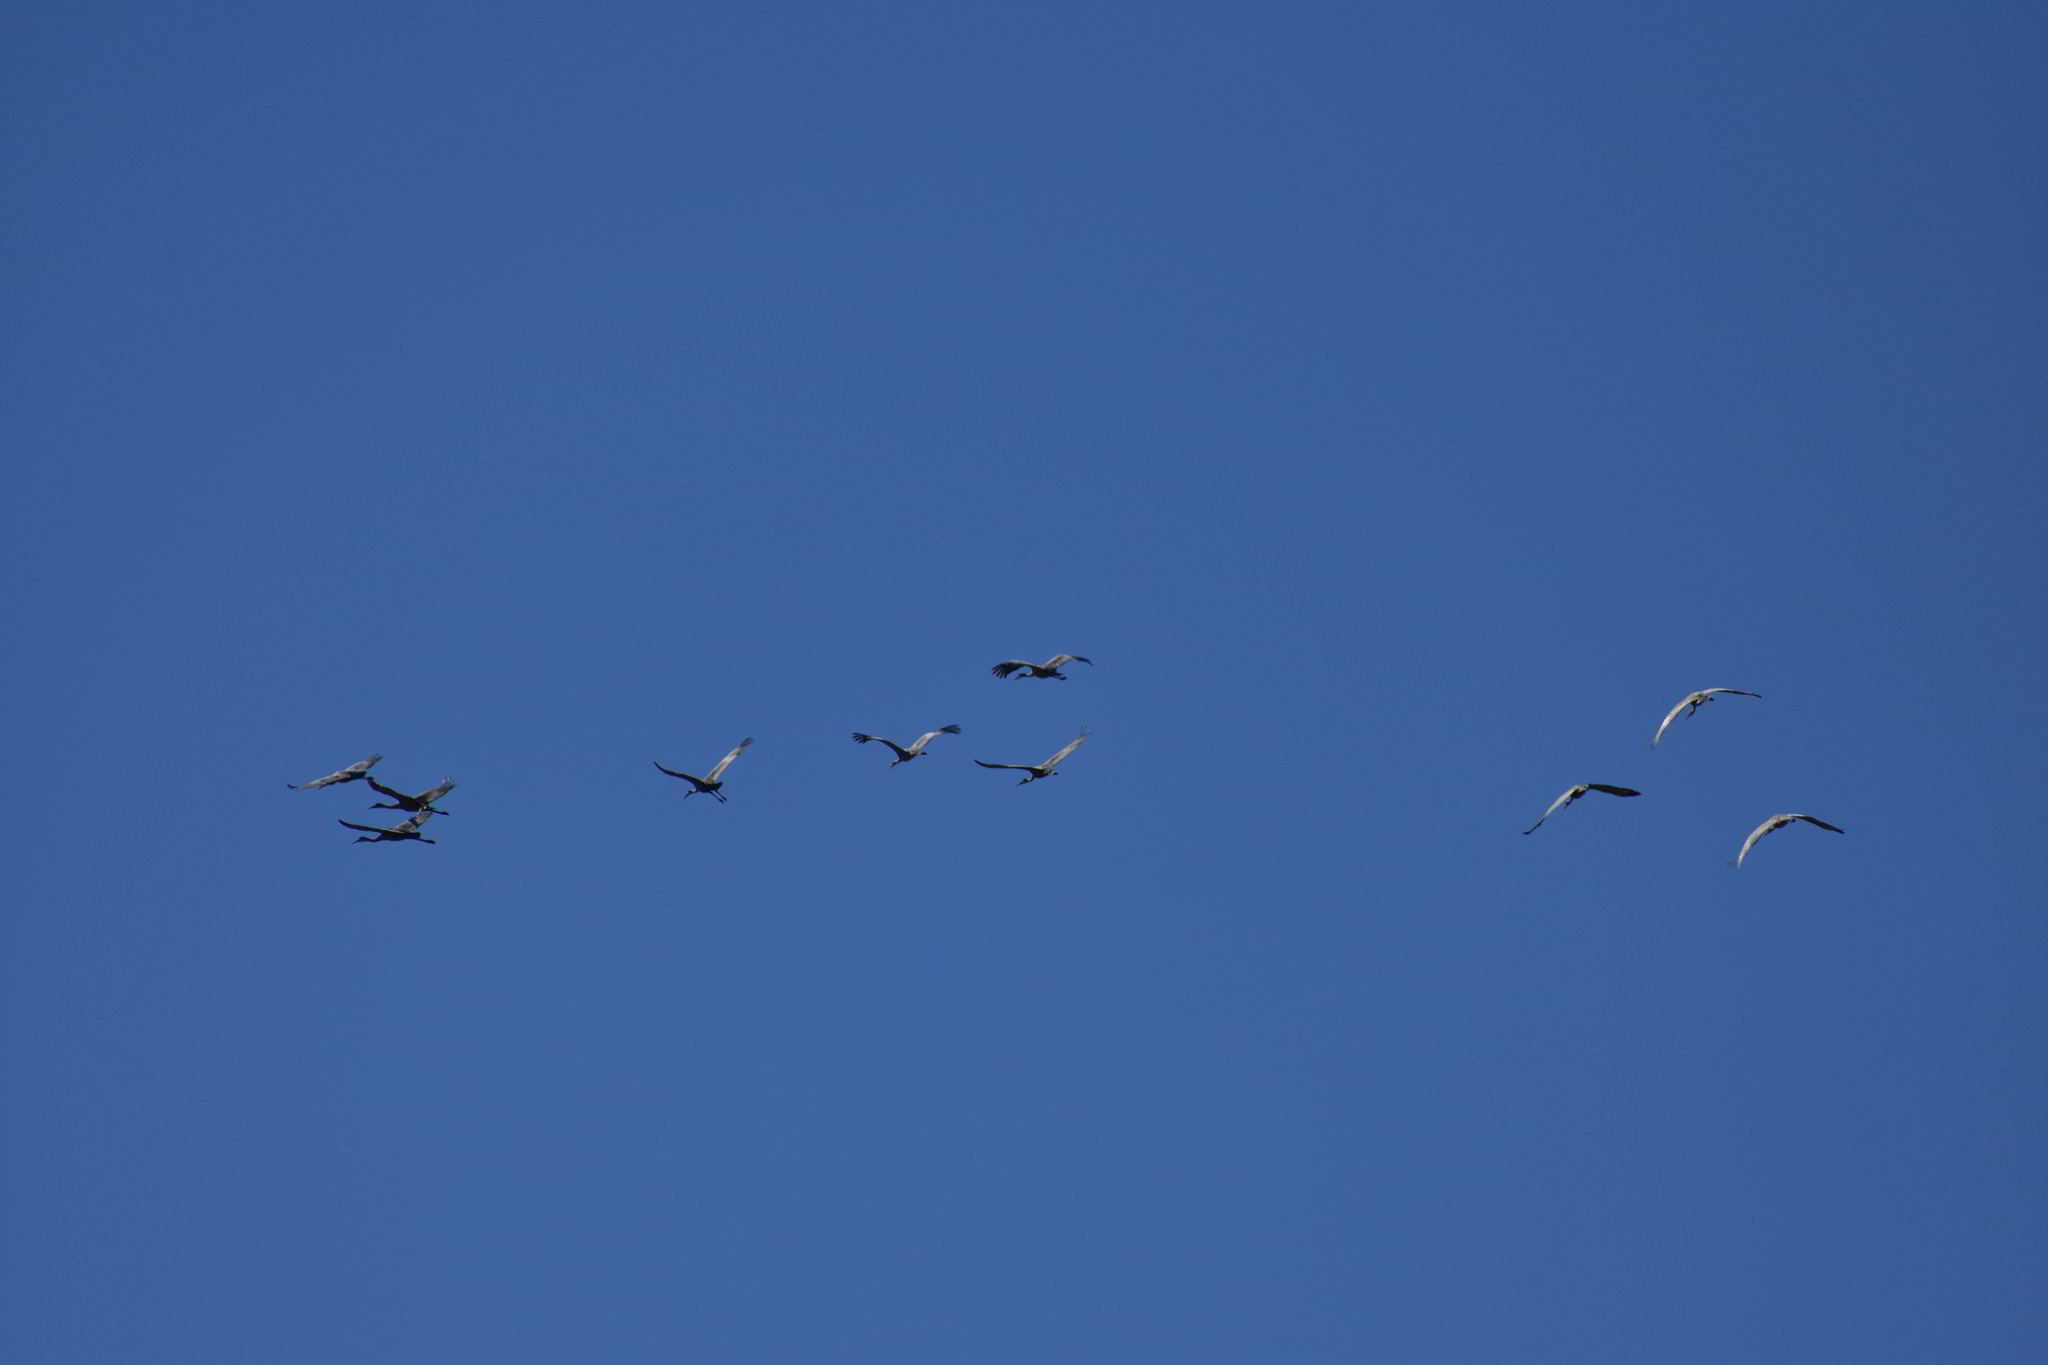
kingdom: Animalia
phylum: Chordata
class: Aves
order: Gruiformes
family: Gruidae
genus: Grus
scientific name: Grus canadensis
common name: Sandhill crane
